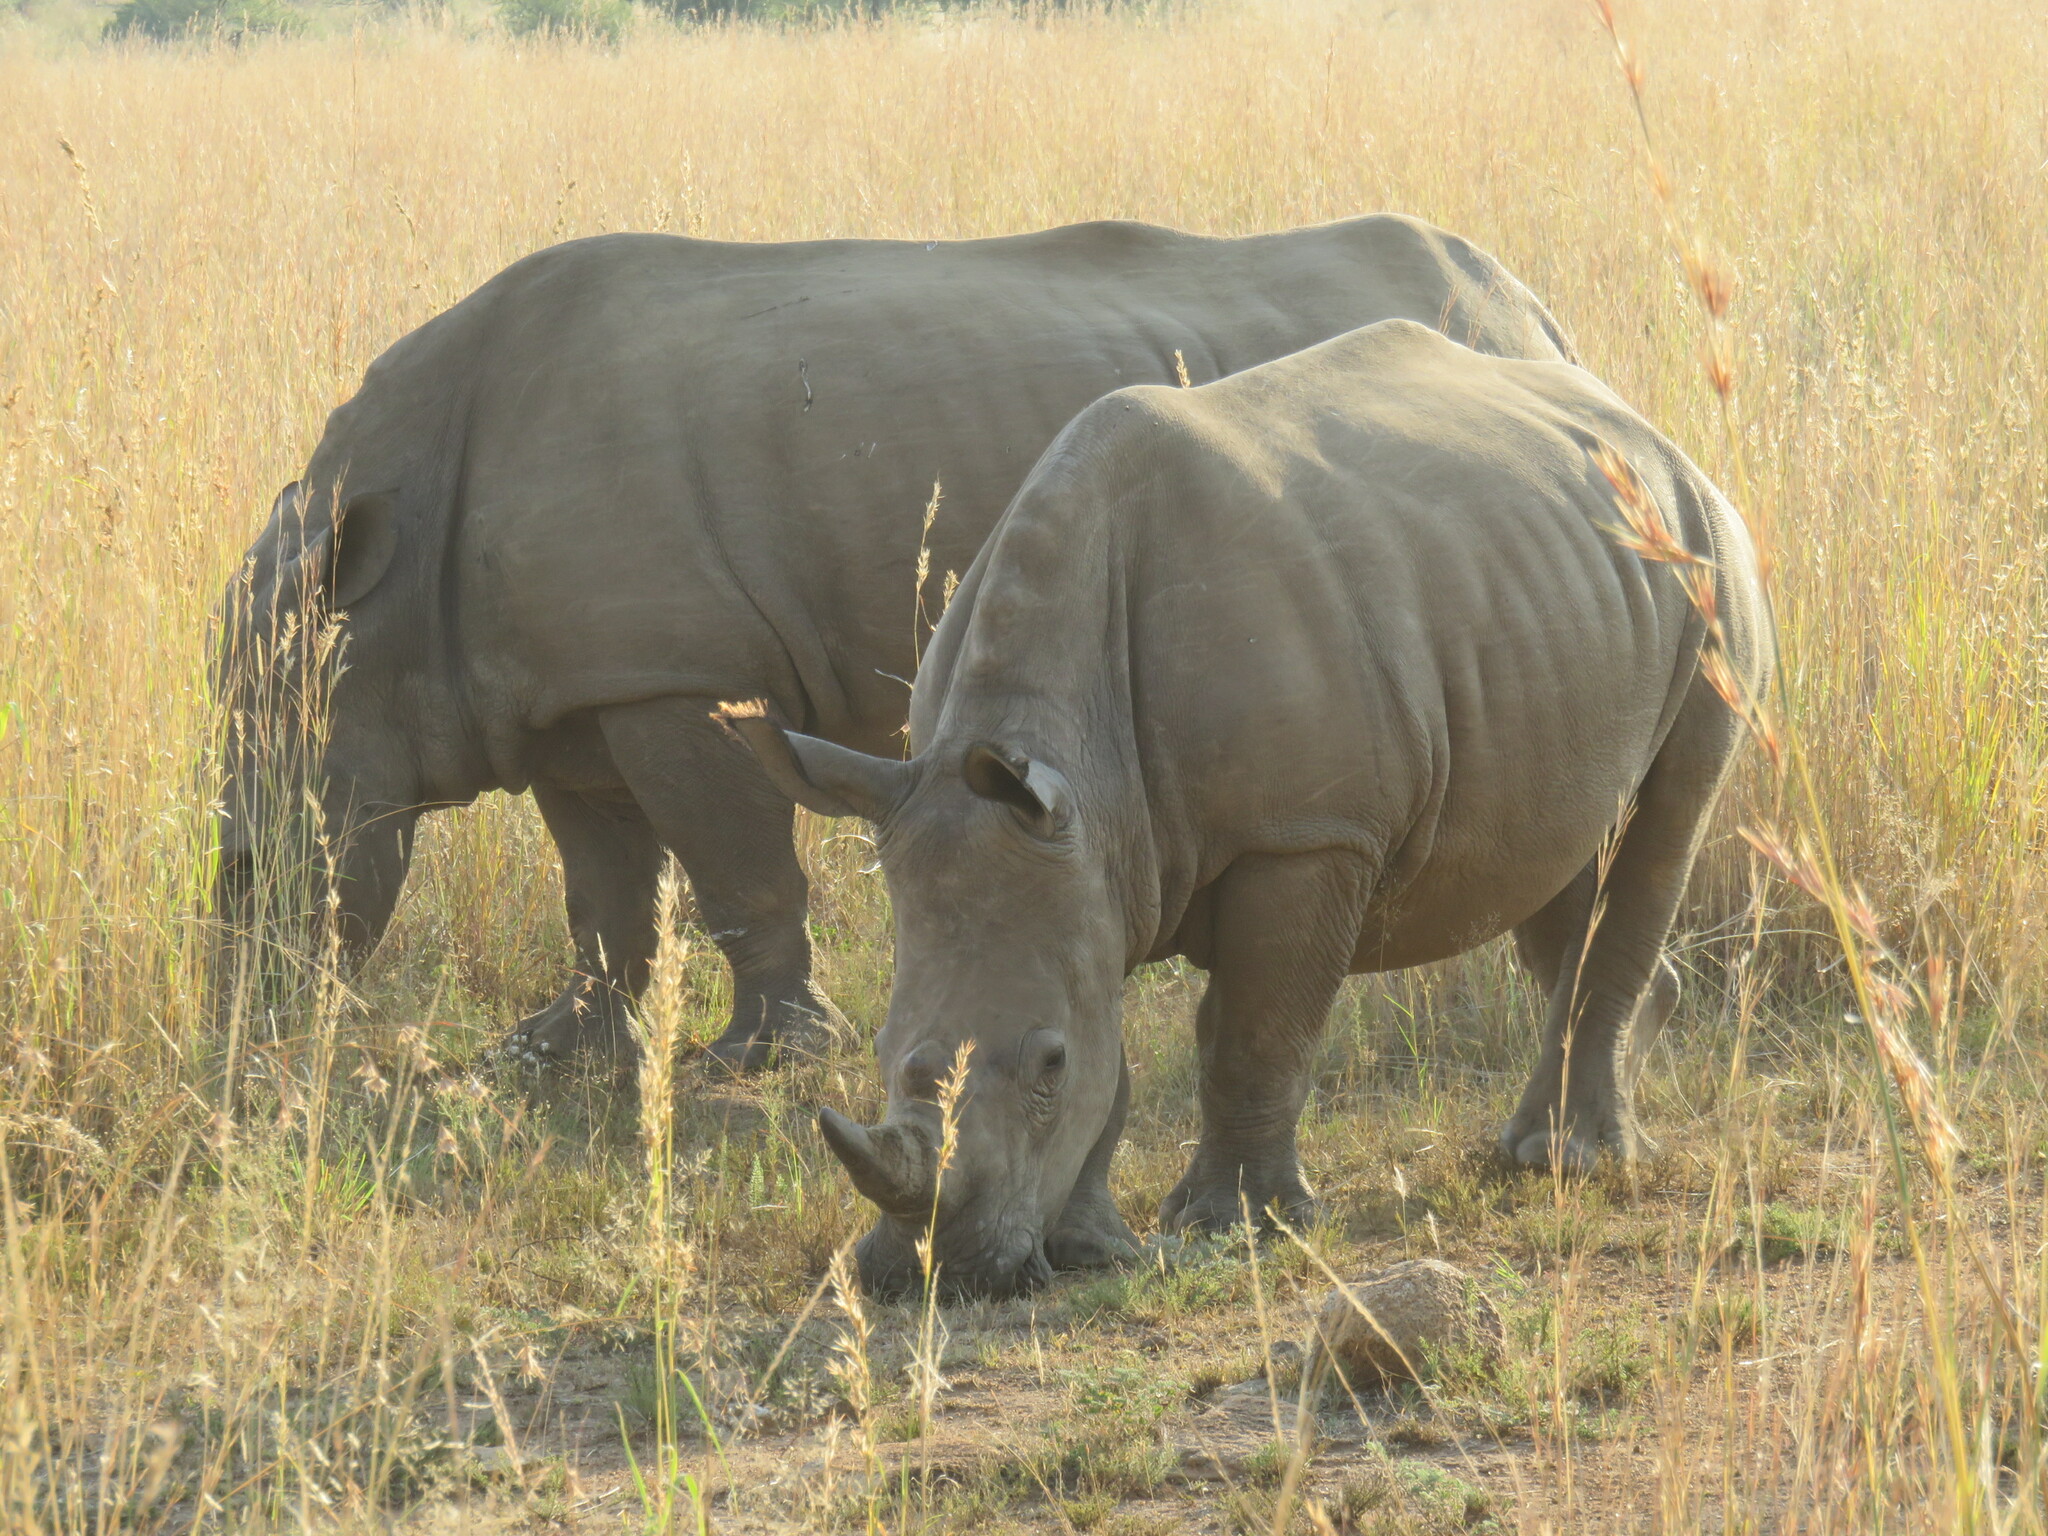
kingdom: Animalia
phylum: Chordata
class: Mammalia
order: Perissodactyla
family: Rhinocerotidae
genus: Ceratotherium
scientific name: Ceratotherium simum
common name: White rhinoceros
